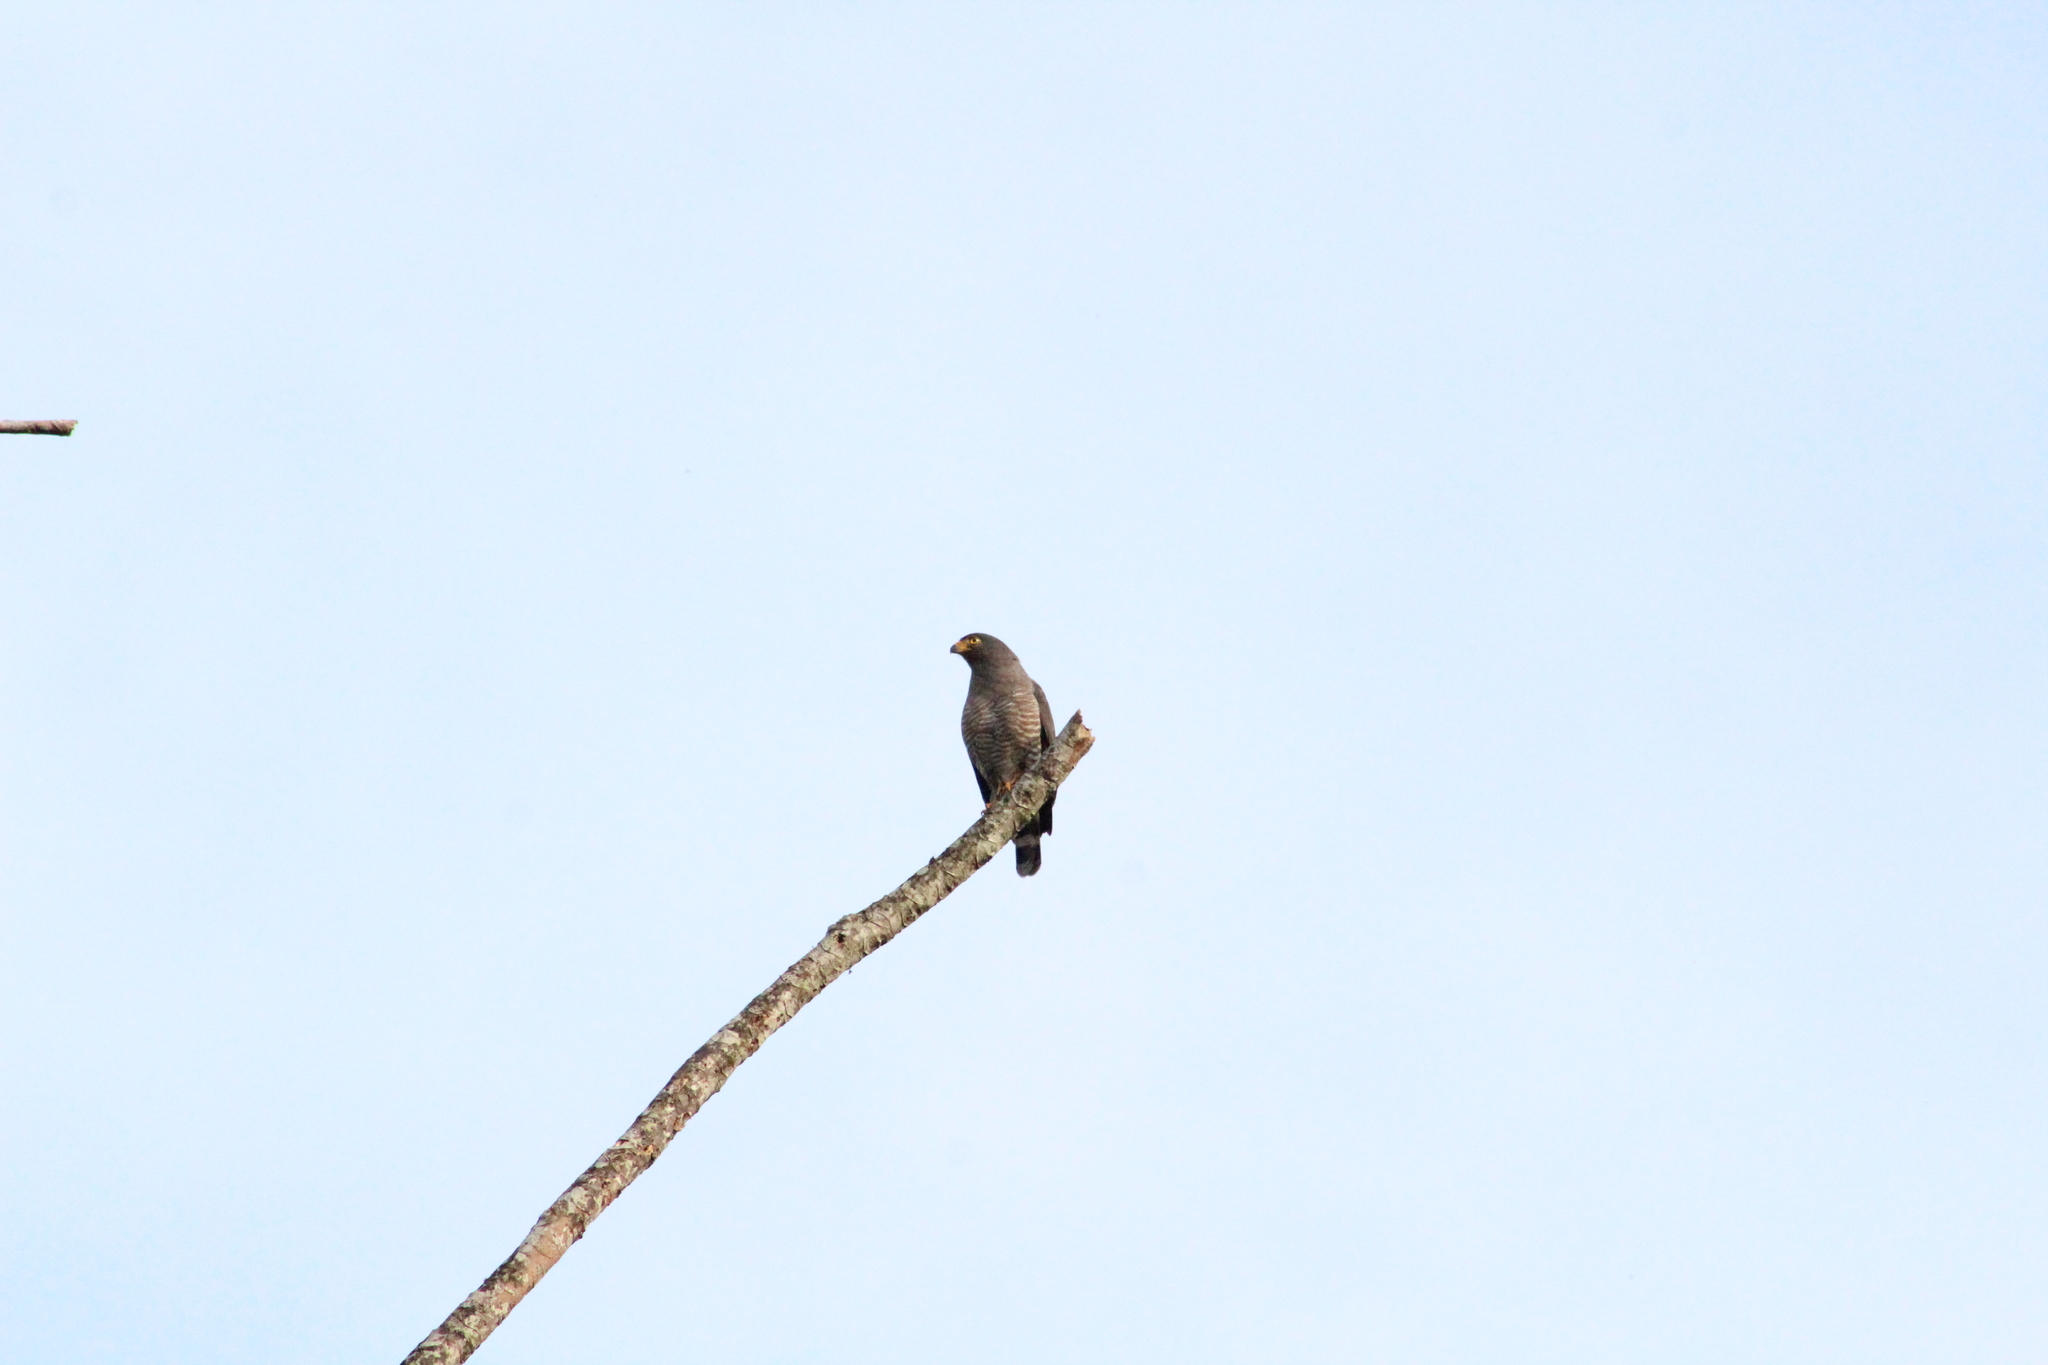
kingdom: Animalia
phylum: Chordata
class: Aves
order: Accipitriformes
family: Accipitridae
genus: Rupornis
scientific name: Rupornis magnirostris
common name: Roadside hawk
